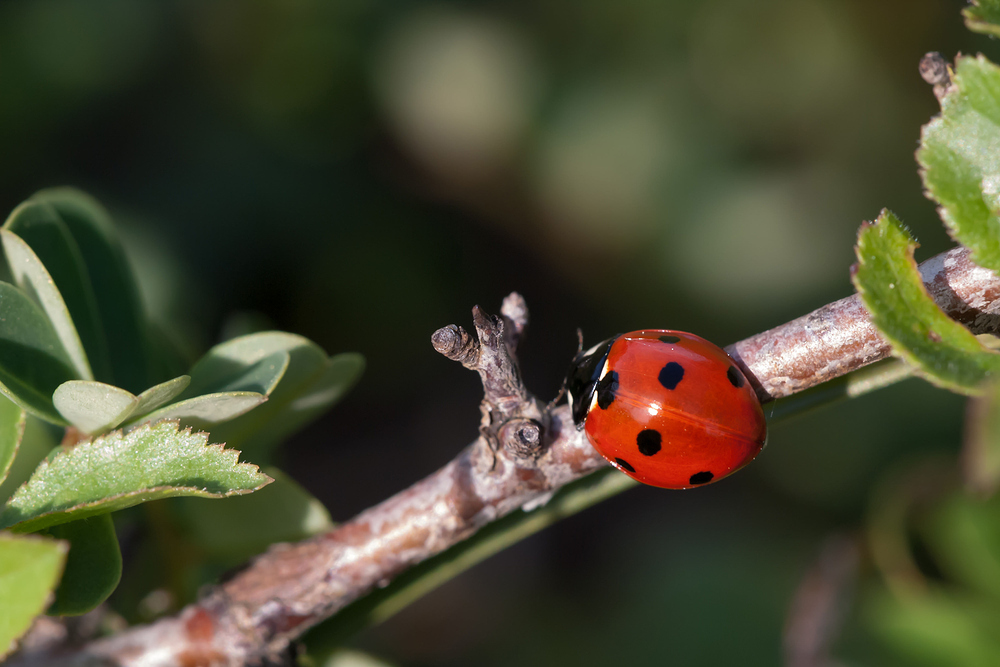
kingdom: Animalia
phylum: Arthropoda
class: Insecta
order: Coleoptera
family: Coccinellidae
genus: Coccinella
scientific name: Coccinella septempunctata
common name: Sevenspotted lady beetle
